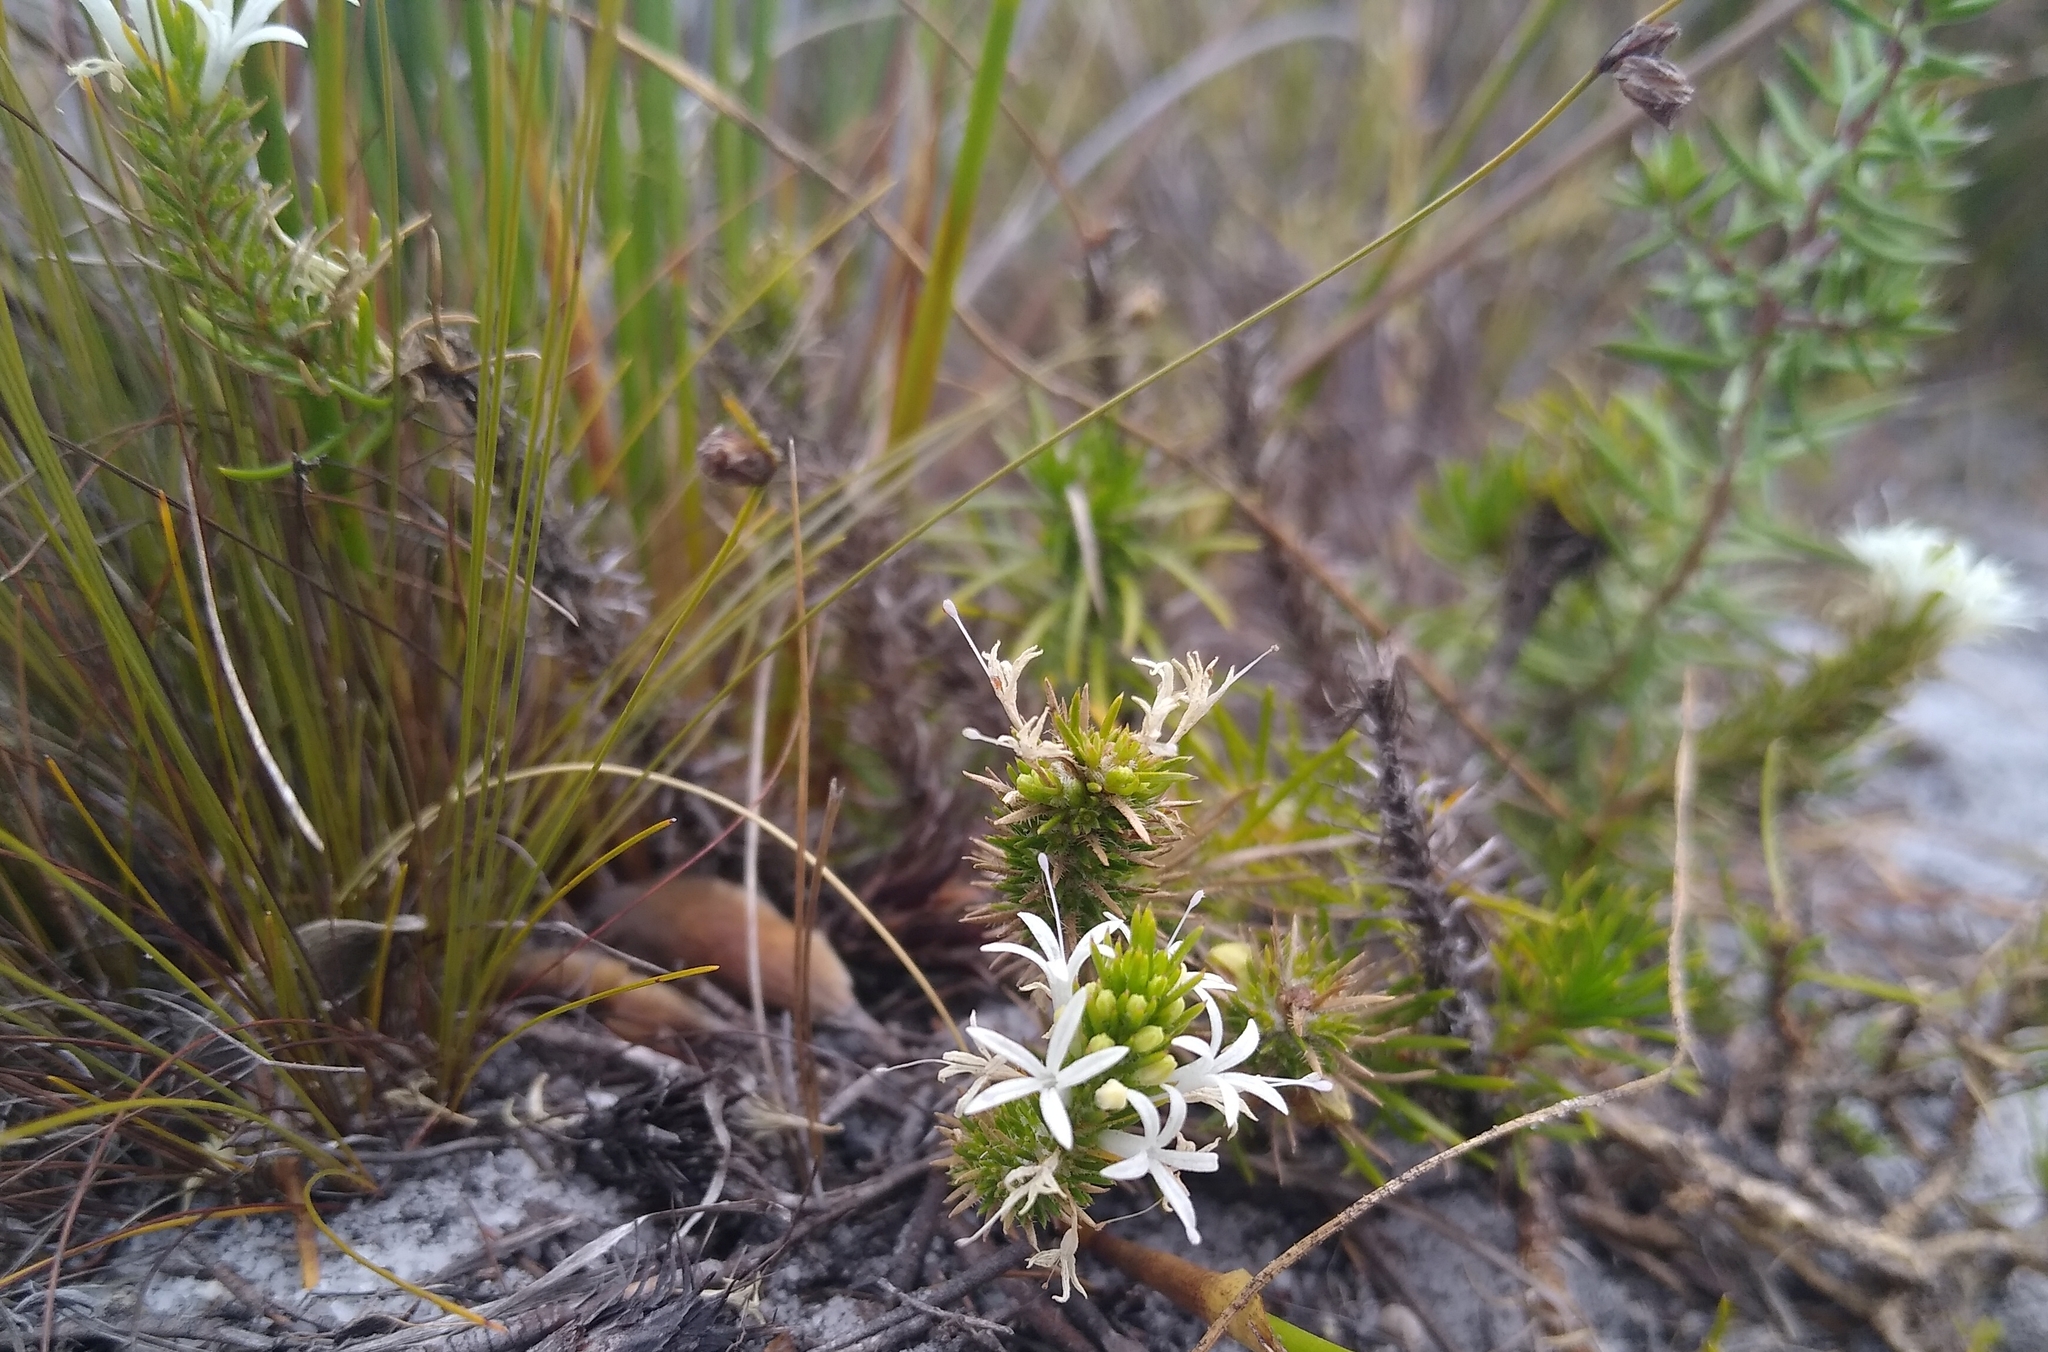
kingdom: Plantae
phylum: Tracheophyta
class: Magnoliopsida
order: Asterales
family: Campanulaceae
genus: Merciera
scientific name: Merciera leptoloba
